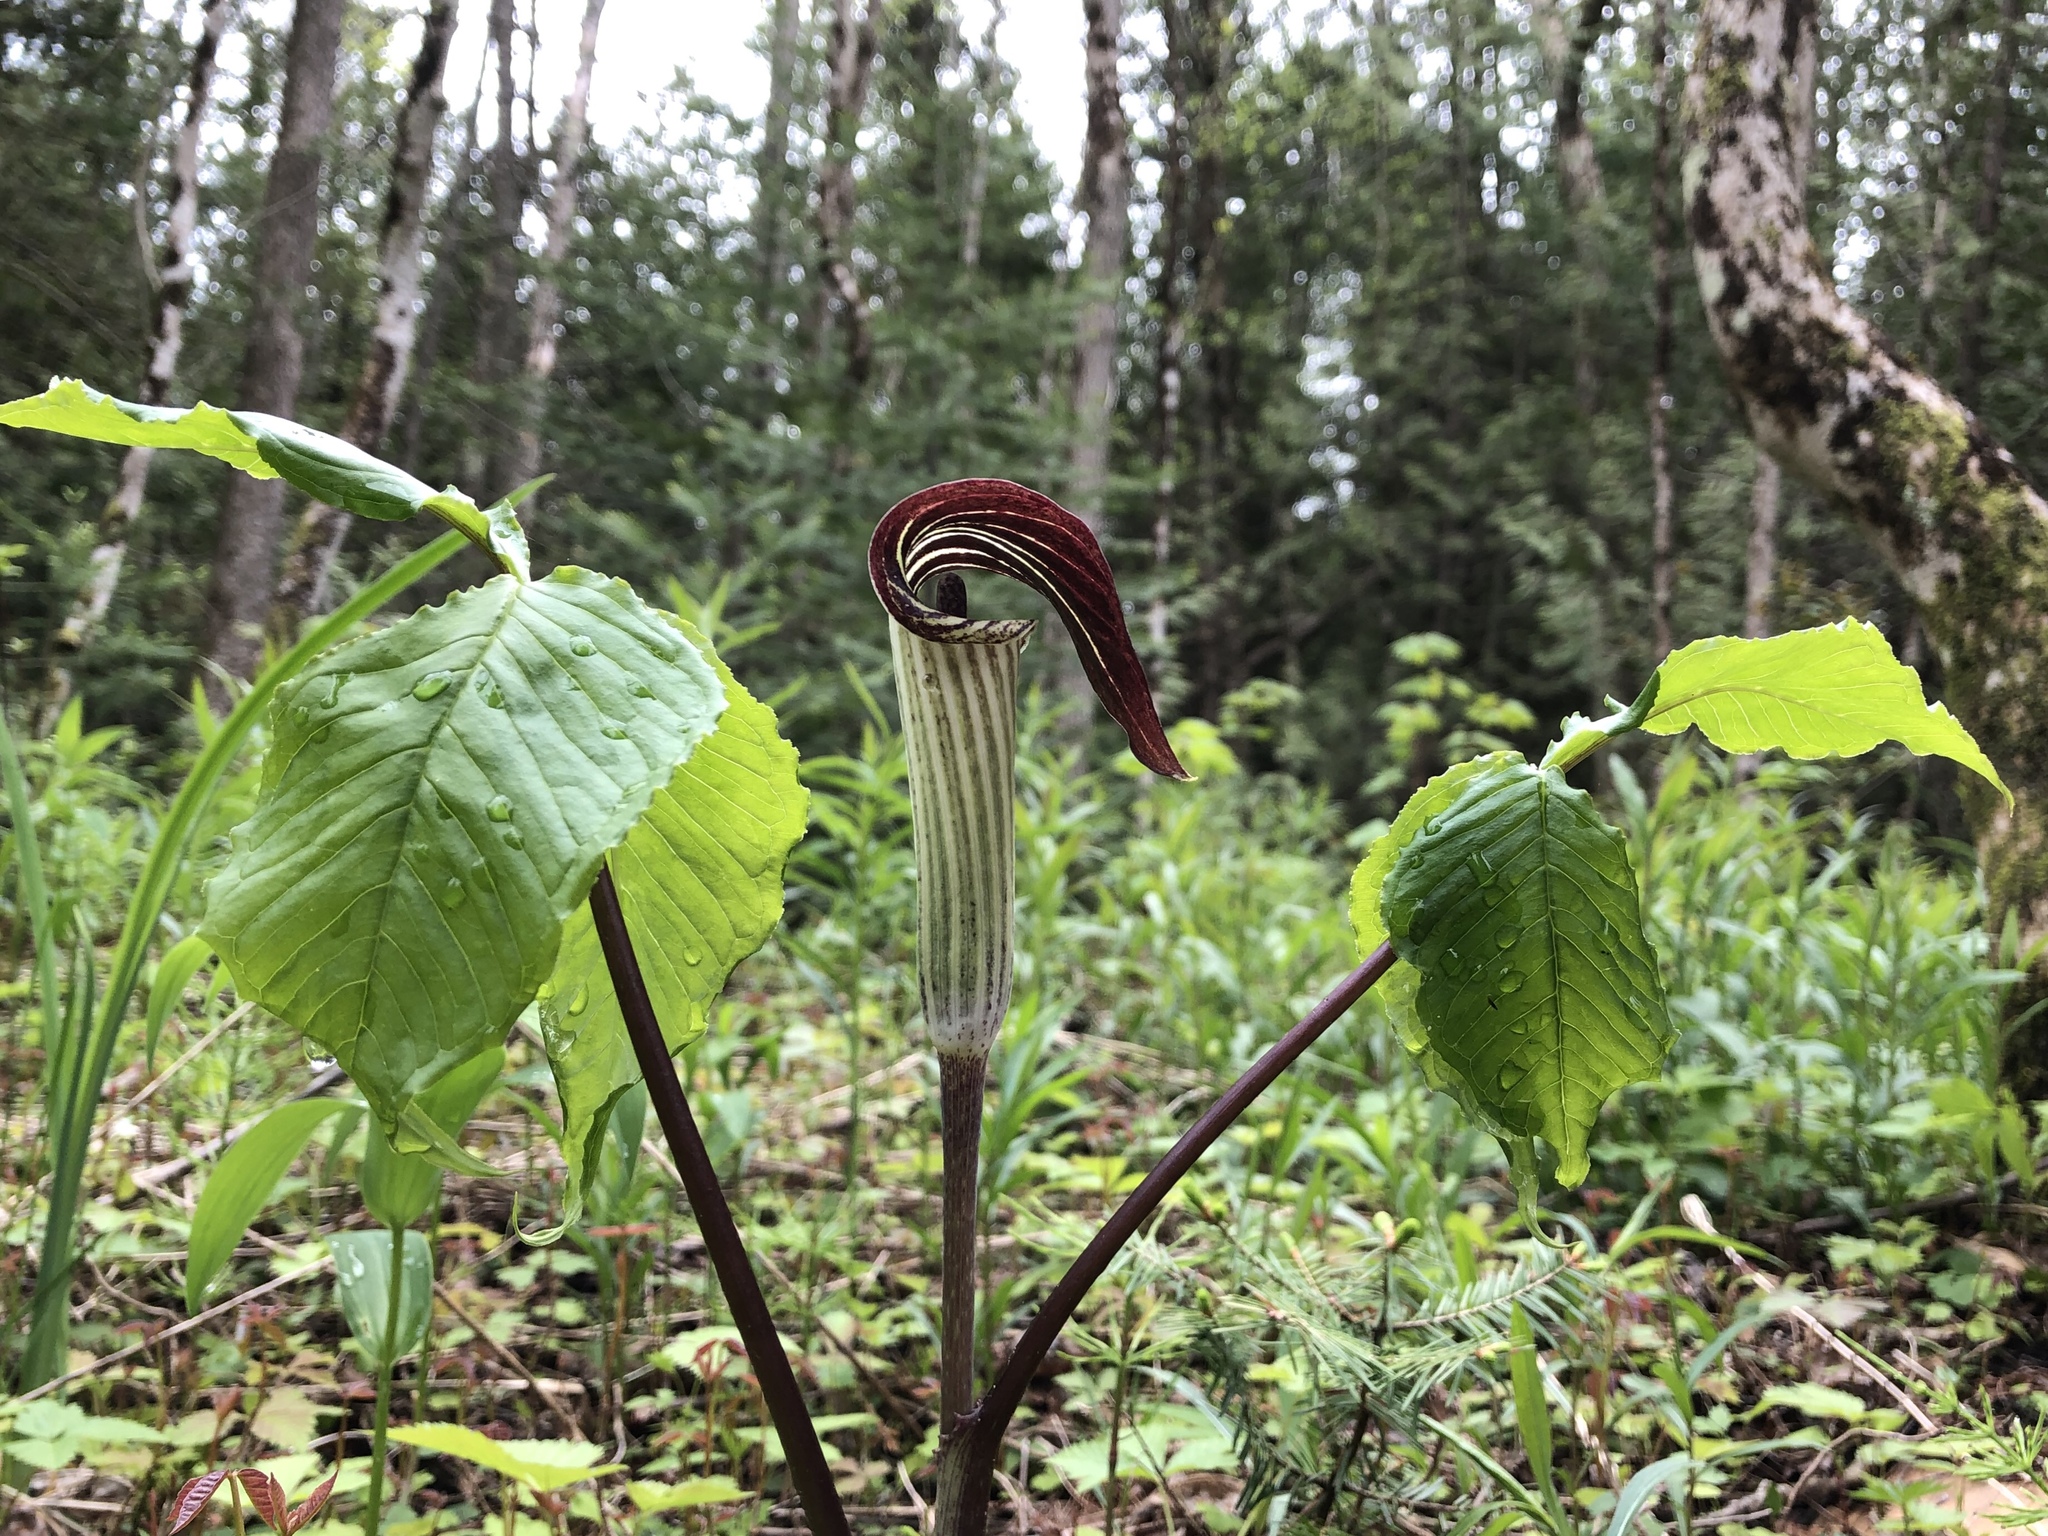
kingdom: Plantae
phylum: Tracheophyta
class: Liliopsida
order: Alismatales
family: Araceae
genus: Arisaema
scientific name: Arisaema triphyllum
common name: Jack-in-the-pulpit
